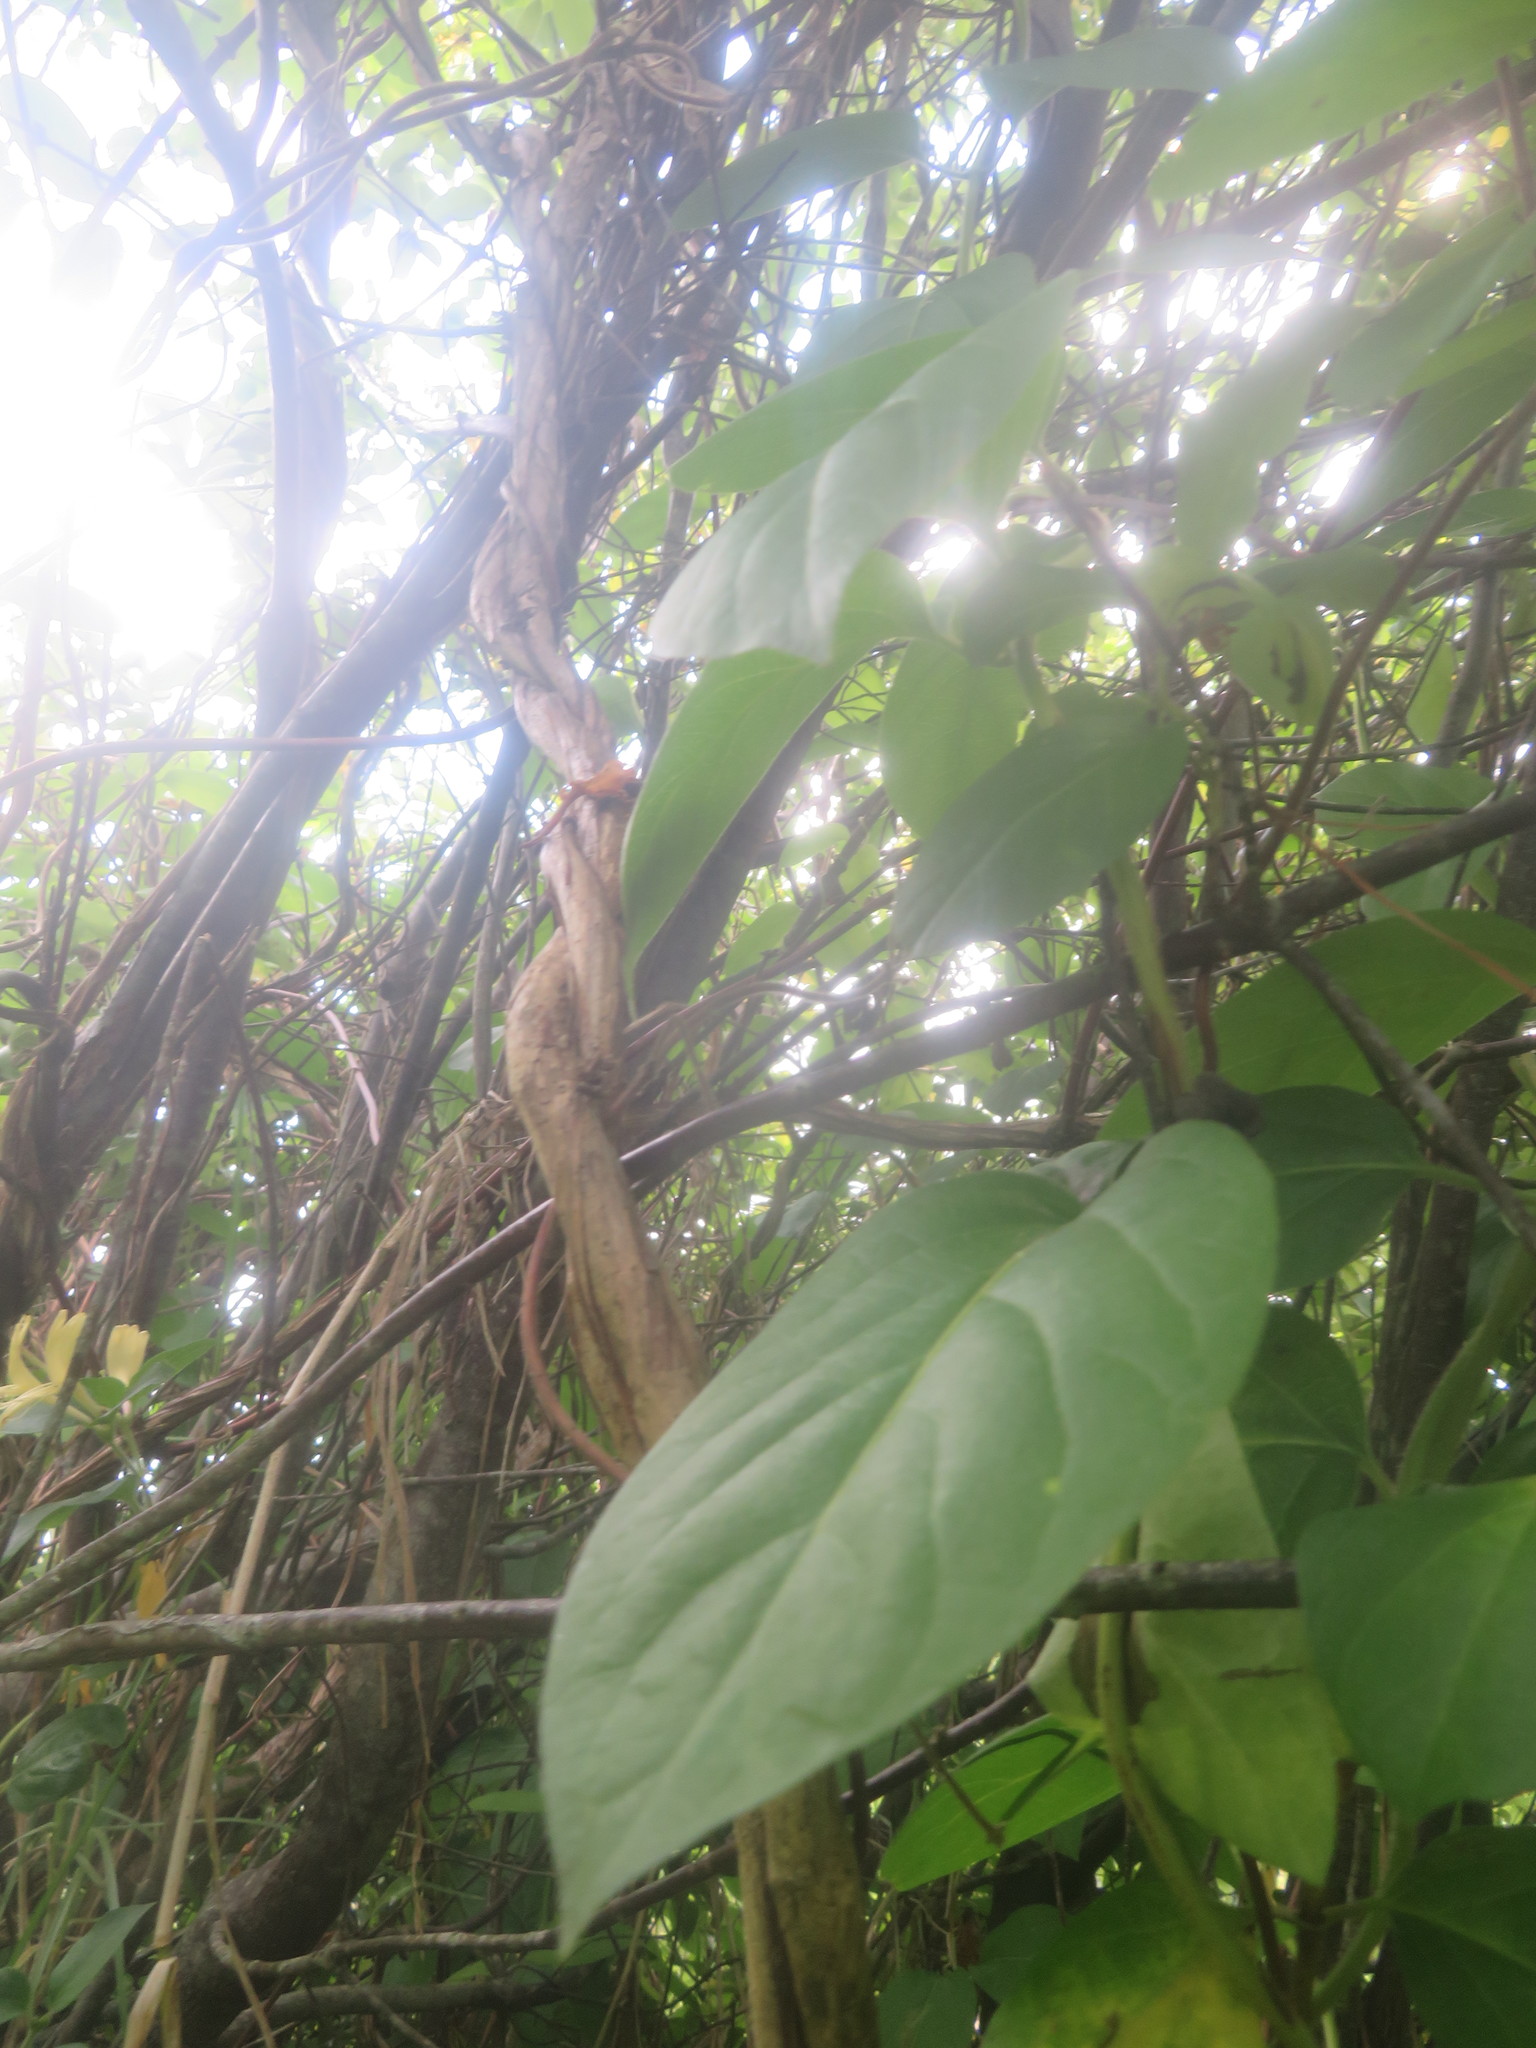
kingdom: Plantae
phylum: Tracheophyta
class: Magnoliopsida
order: Dipsacales
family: Caprifoliaceae
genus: Lonicera
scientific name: Lonicera japonica
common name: Japanese honeysuckle
